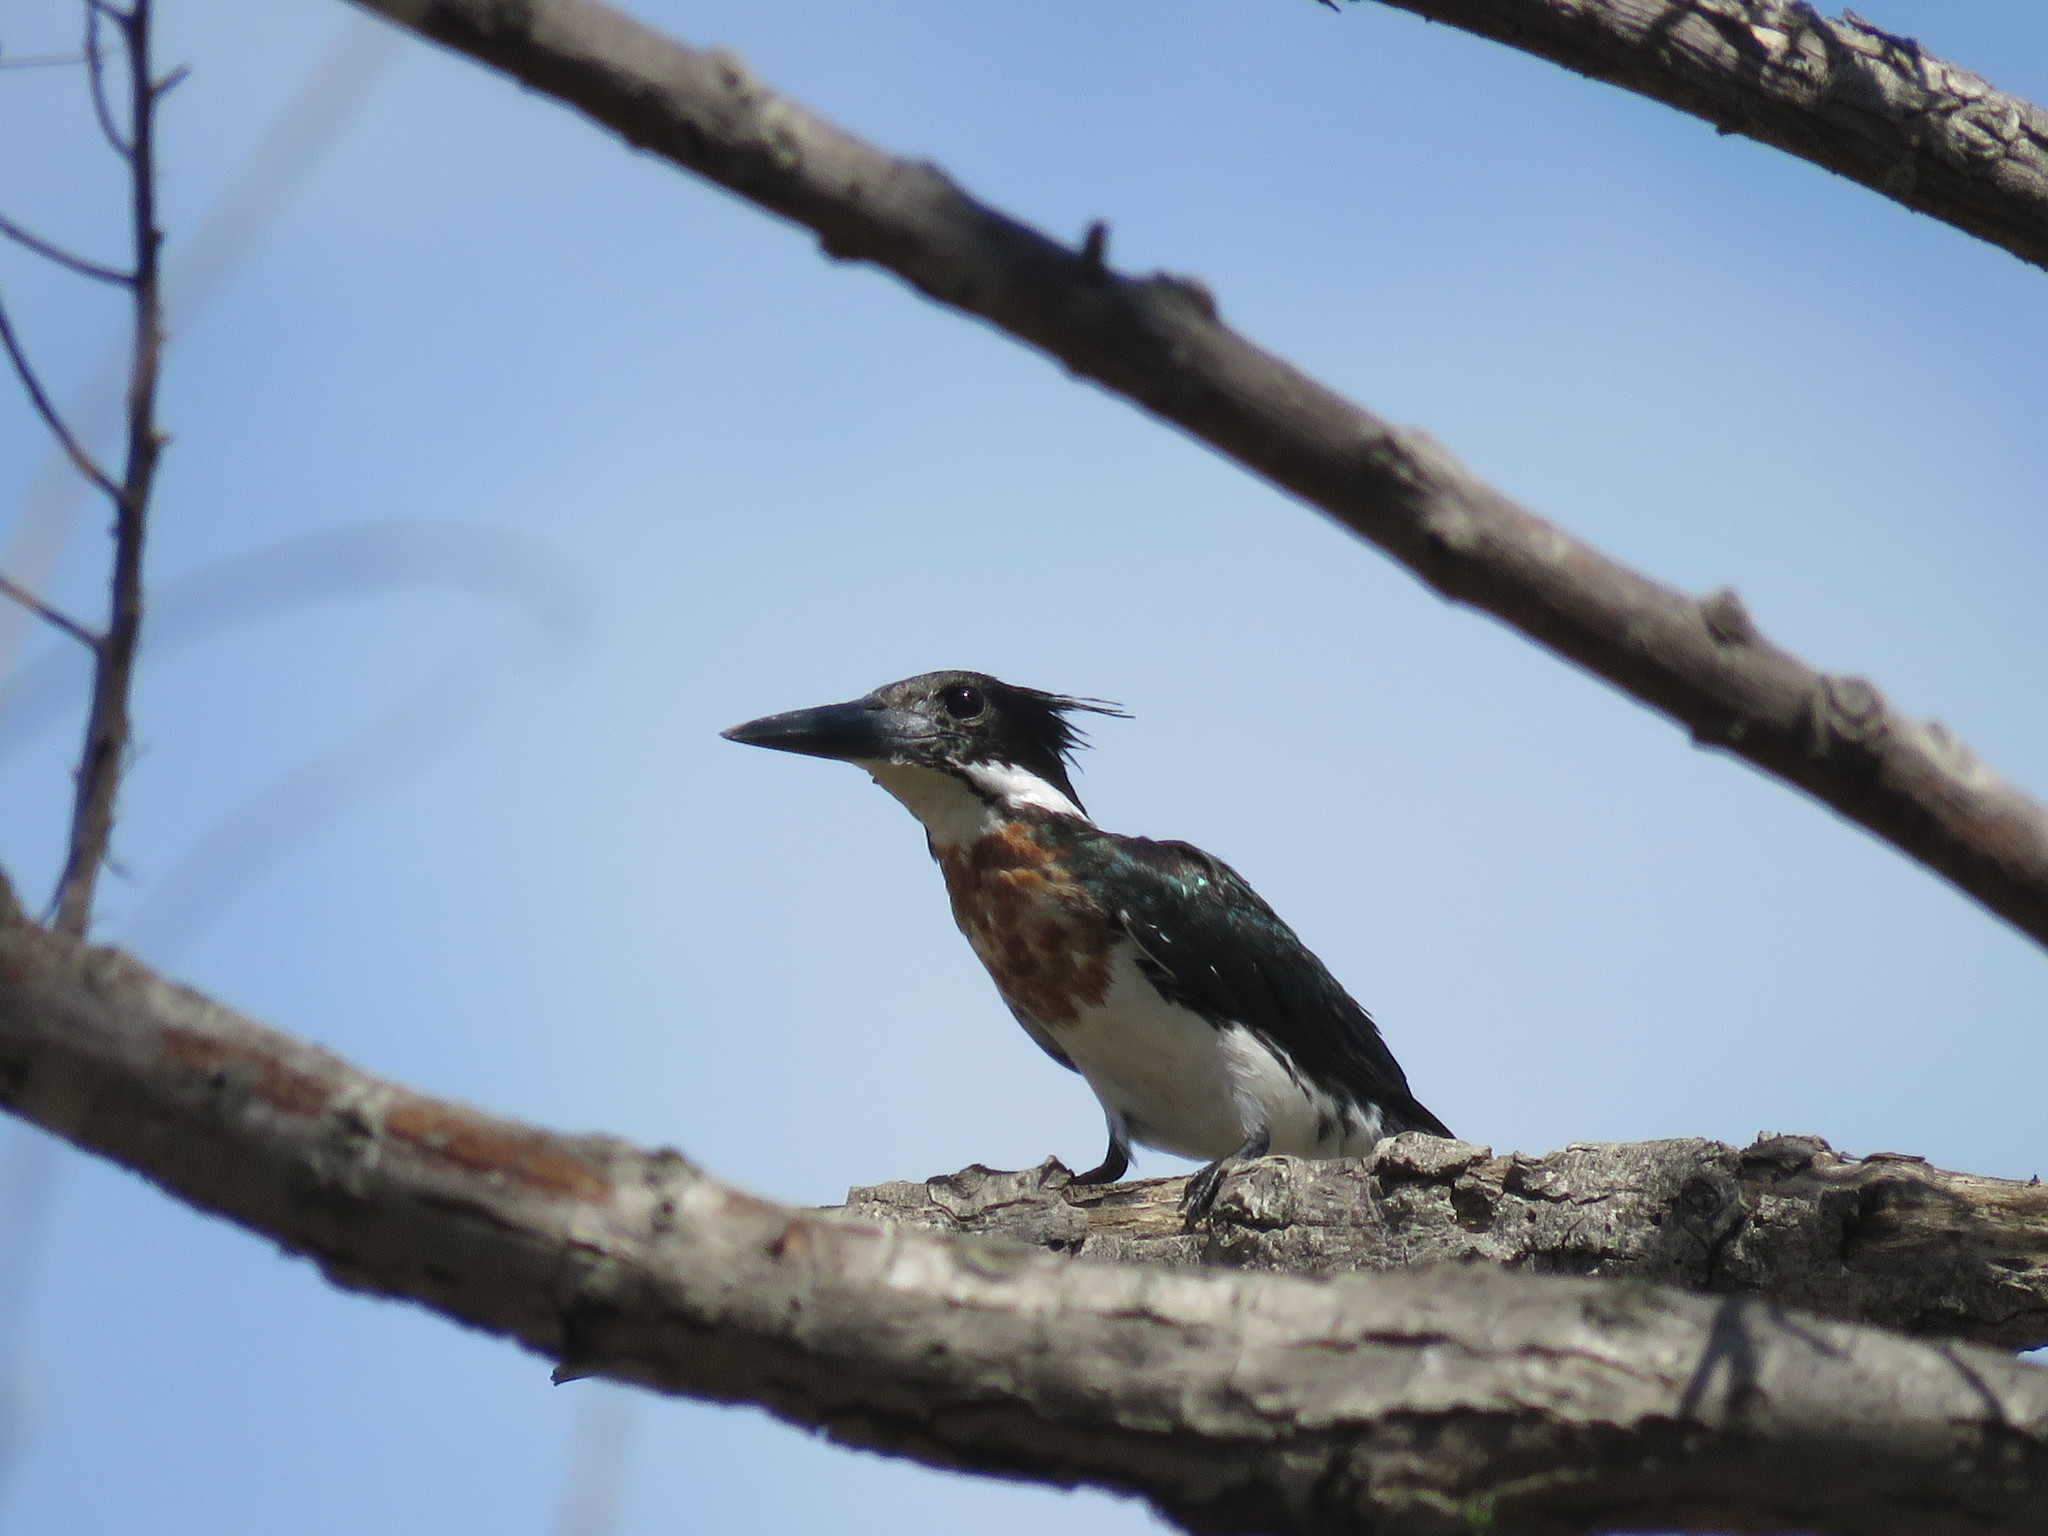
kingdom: Animalia
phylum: Chordata
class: Aves
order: Coraciiformes
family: Alcedinidae
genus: Chloroceryle
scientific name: Chloroceryle amazona
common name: Amazon kingfisher
